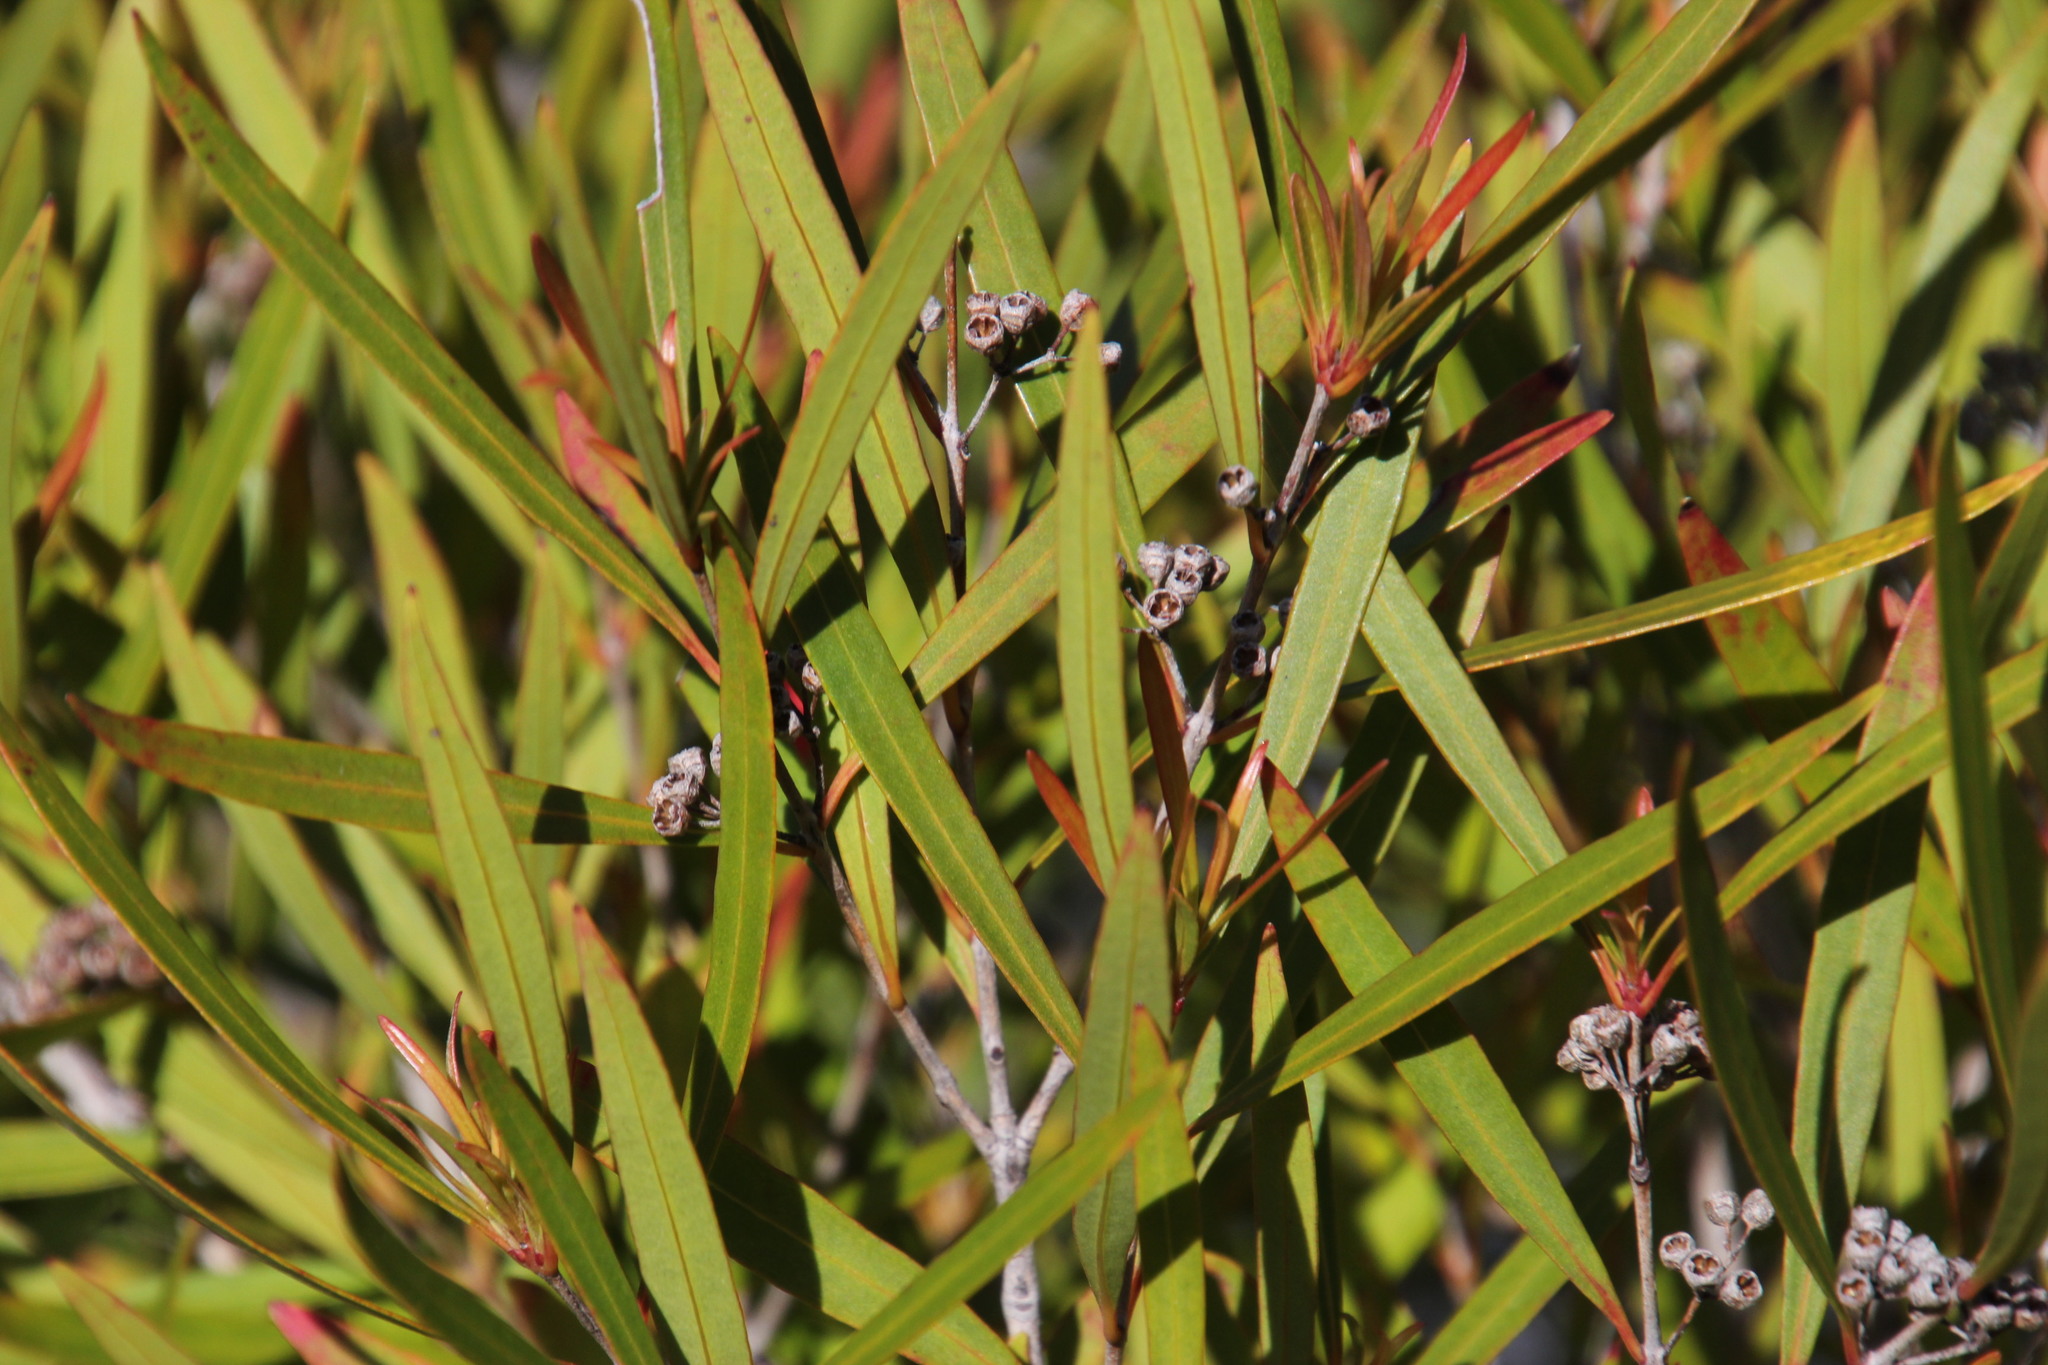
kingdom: Plantae
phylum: Tracheophyta
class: Magnoliopsida
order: Myrtales
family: Myrtaceae
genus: Callistemon
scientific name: Callistemon lanceolatus
